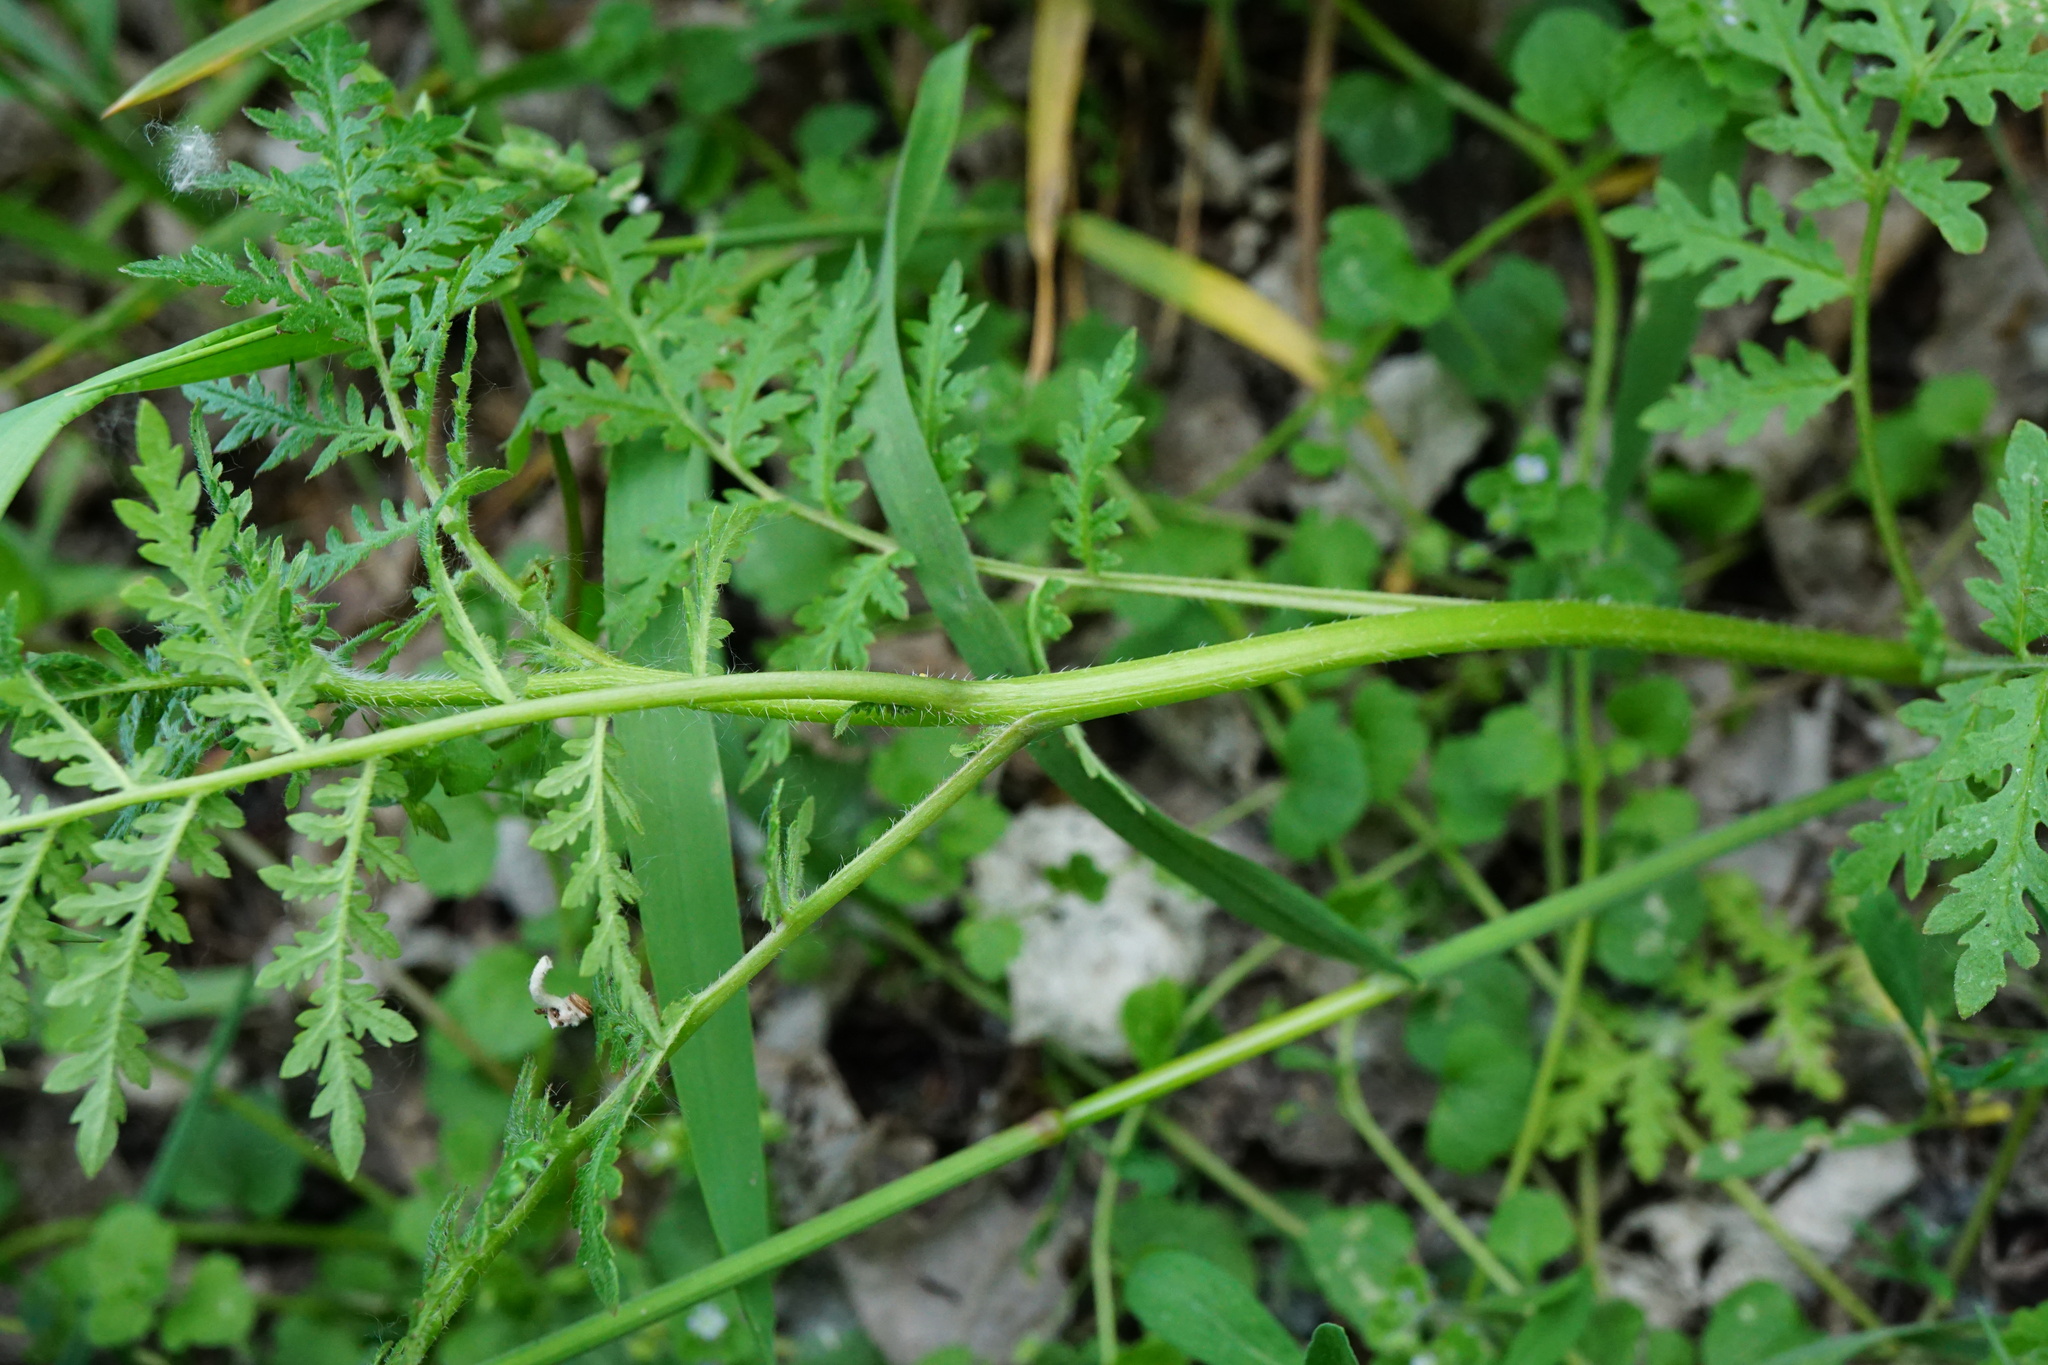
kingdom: Plantae
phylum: Tracheophyta
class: Magnoliopsida
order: Boraginales
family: Hydrophyllaceae
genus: Phacelia
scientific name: Phacelia tanacetifolia
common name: Phacelia
